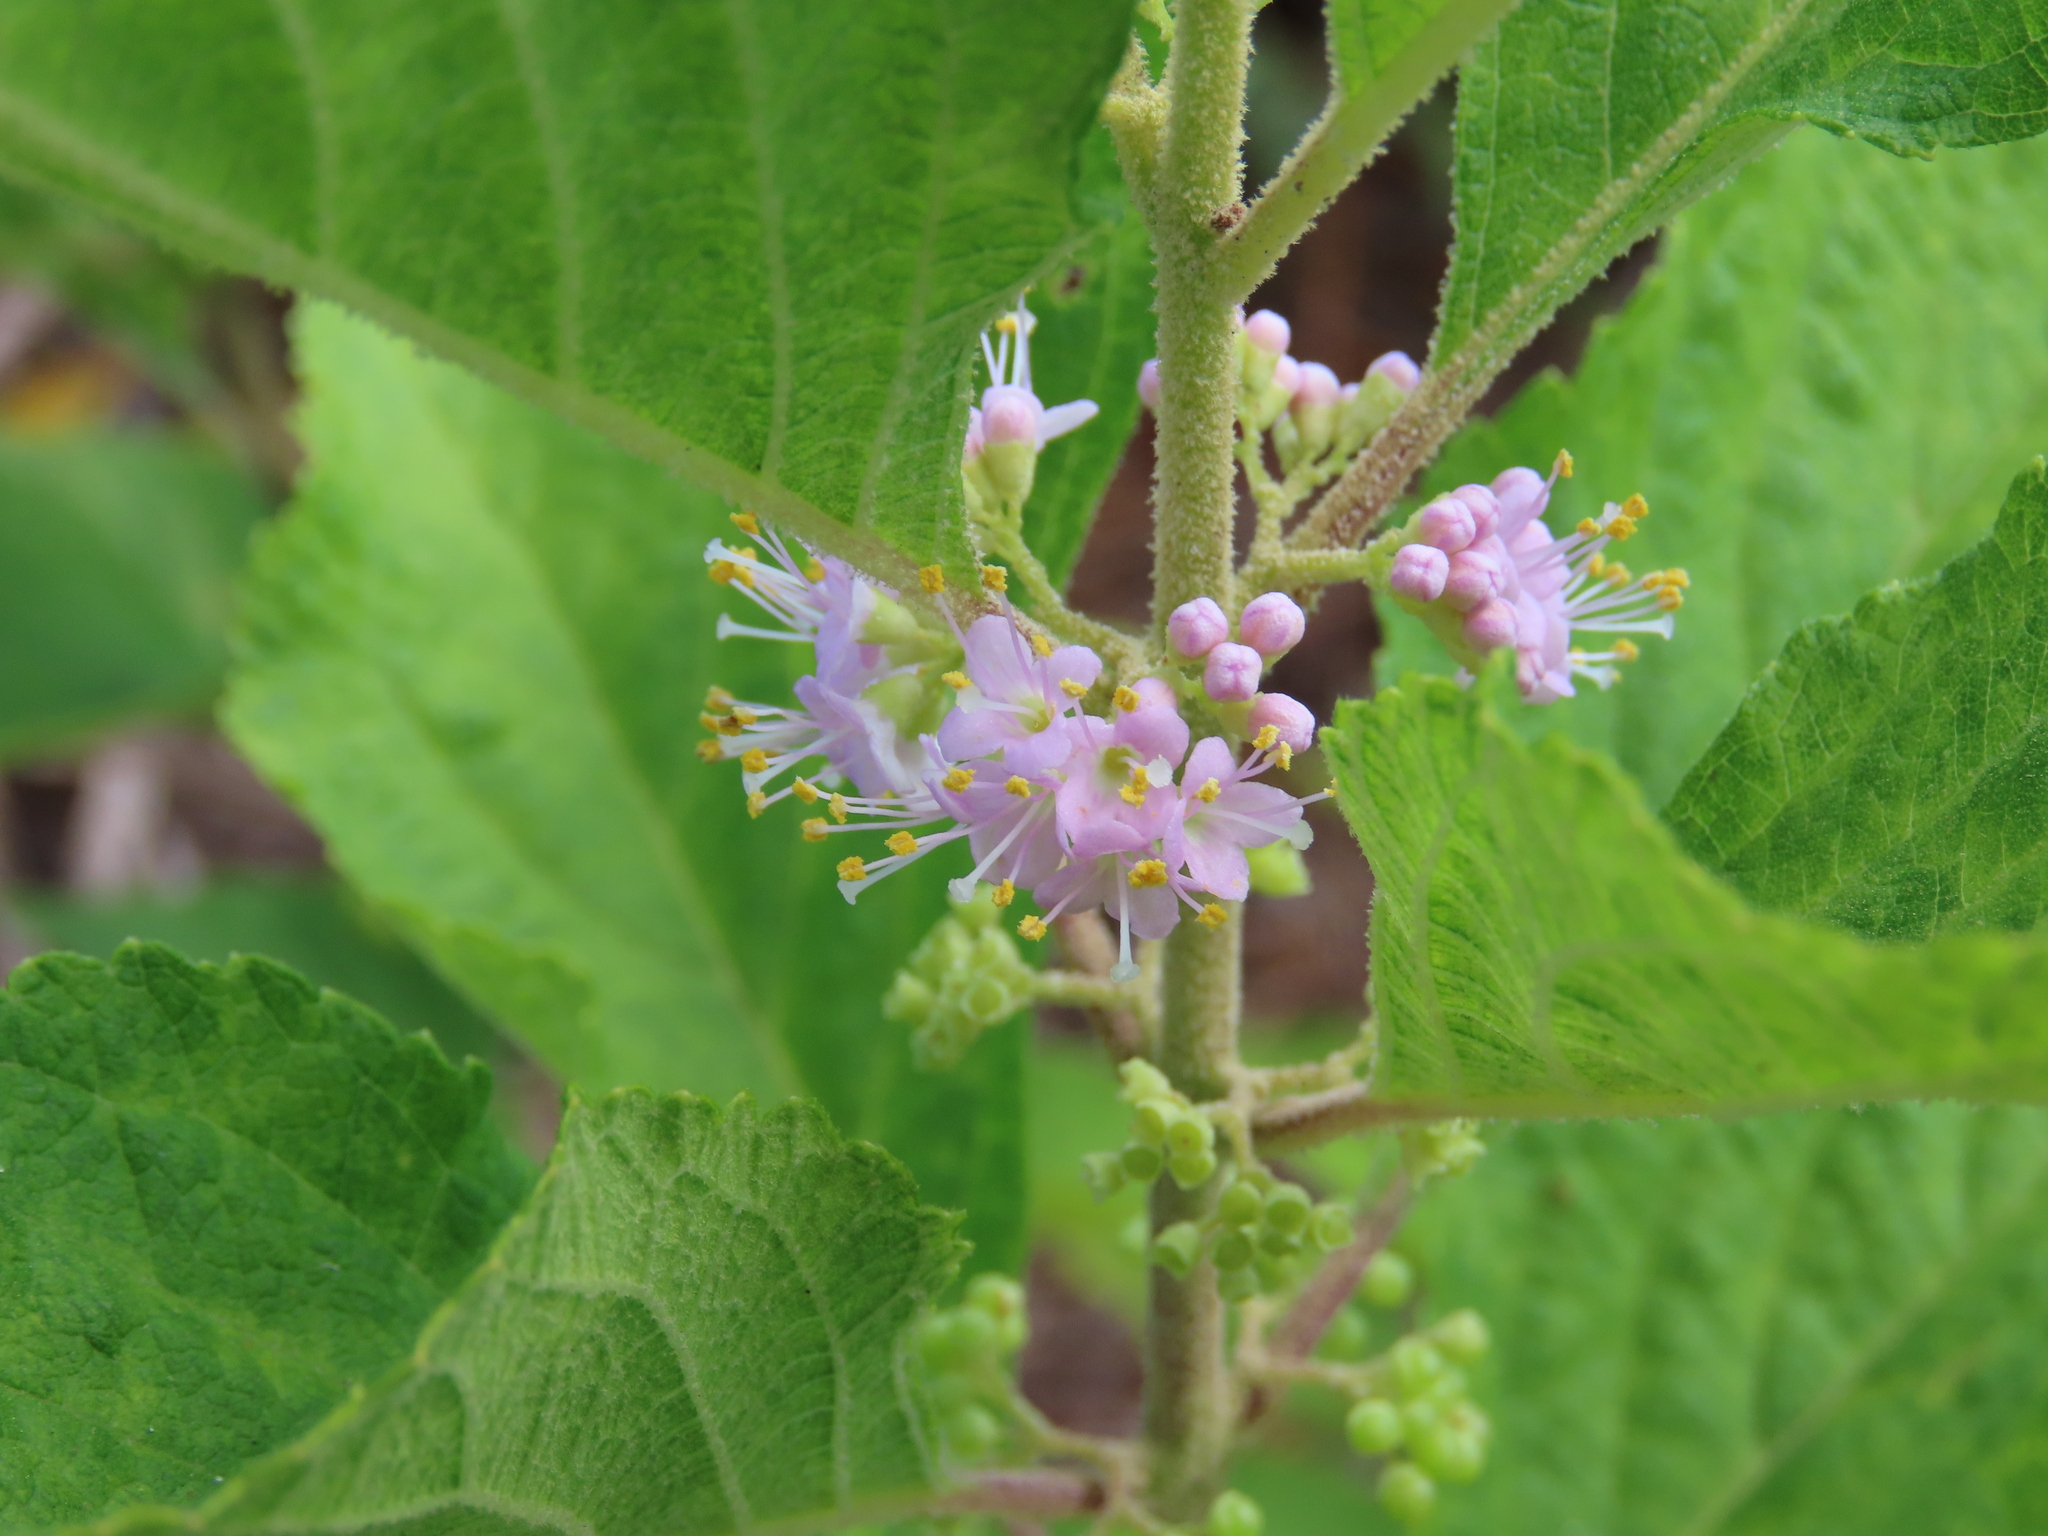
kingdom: Plantae
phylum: Tracheophyta
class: Magnoliopsida
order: Lamiales
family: Lamiaceae
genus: Callicarpa
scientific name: Callicarpa americana
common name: American beautyberry
